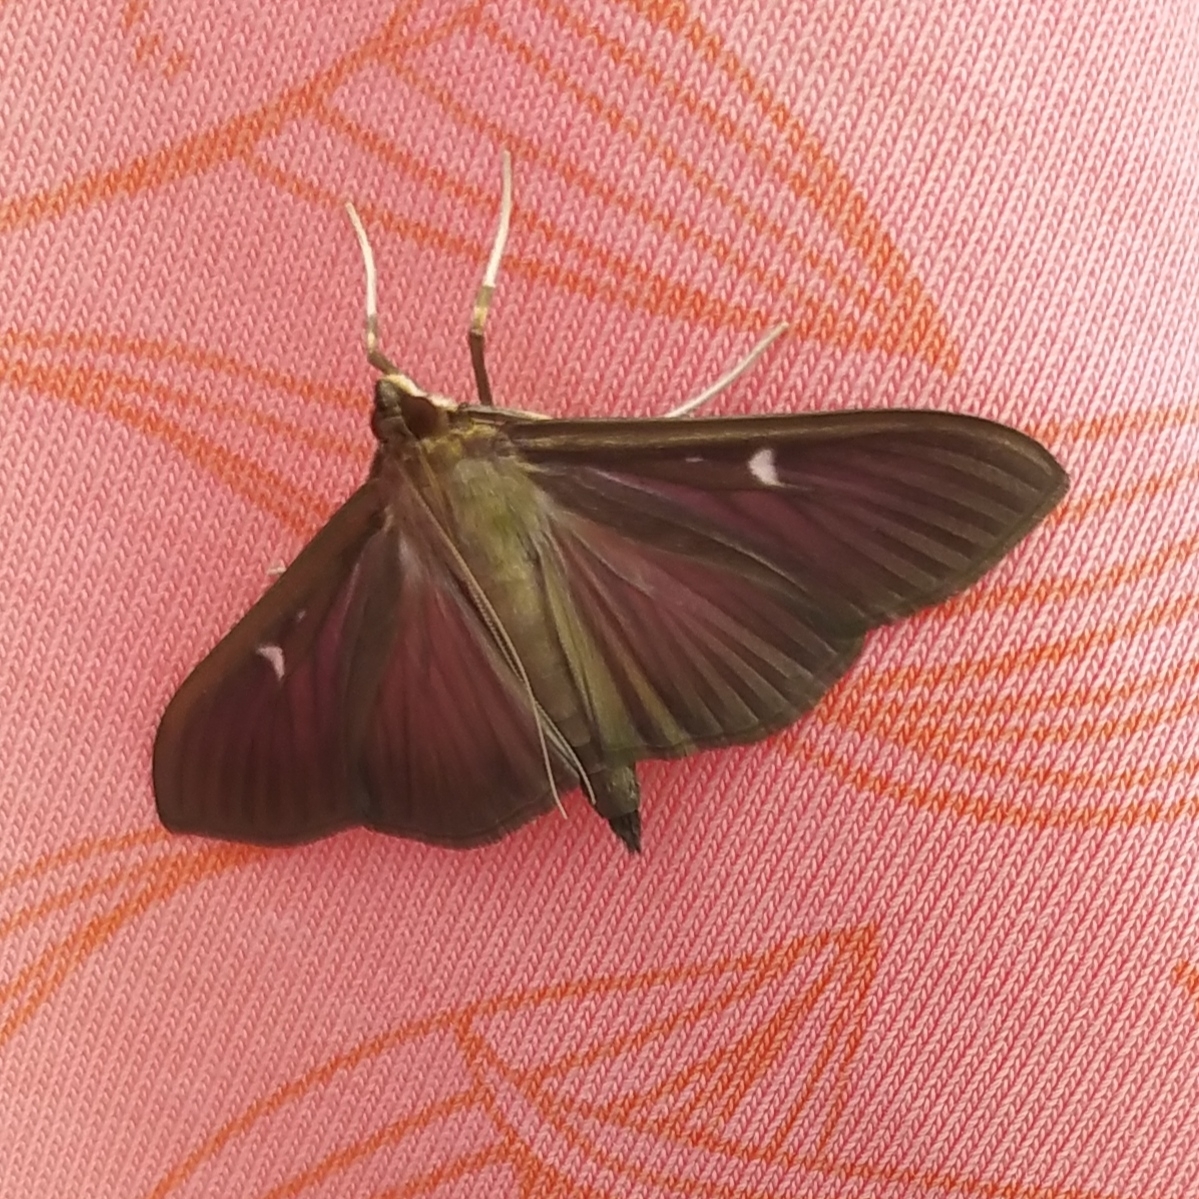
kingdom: Animalia
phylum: Arthropoda
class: Insecta
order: Lepidoptera
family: Crambidae
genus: Cydalima
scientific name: Cydalima perspectalis
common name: Box tree moth
